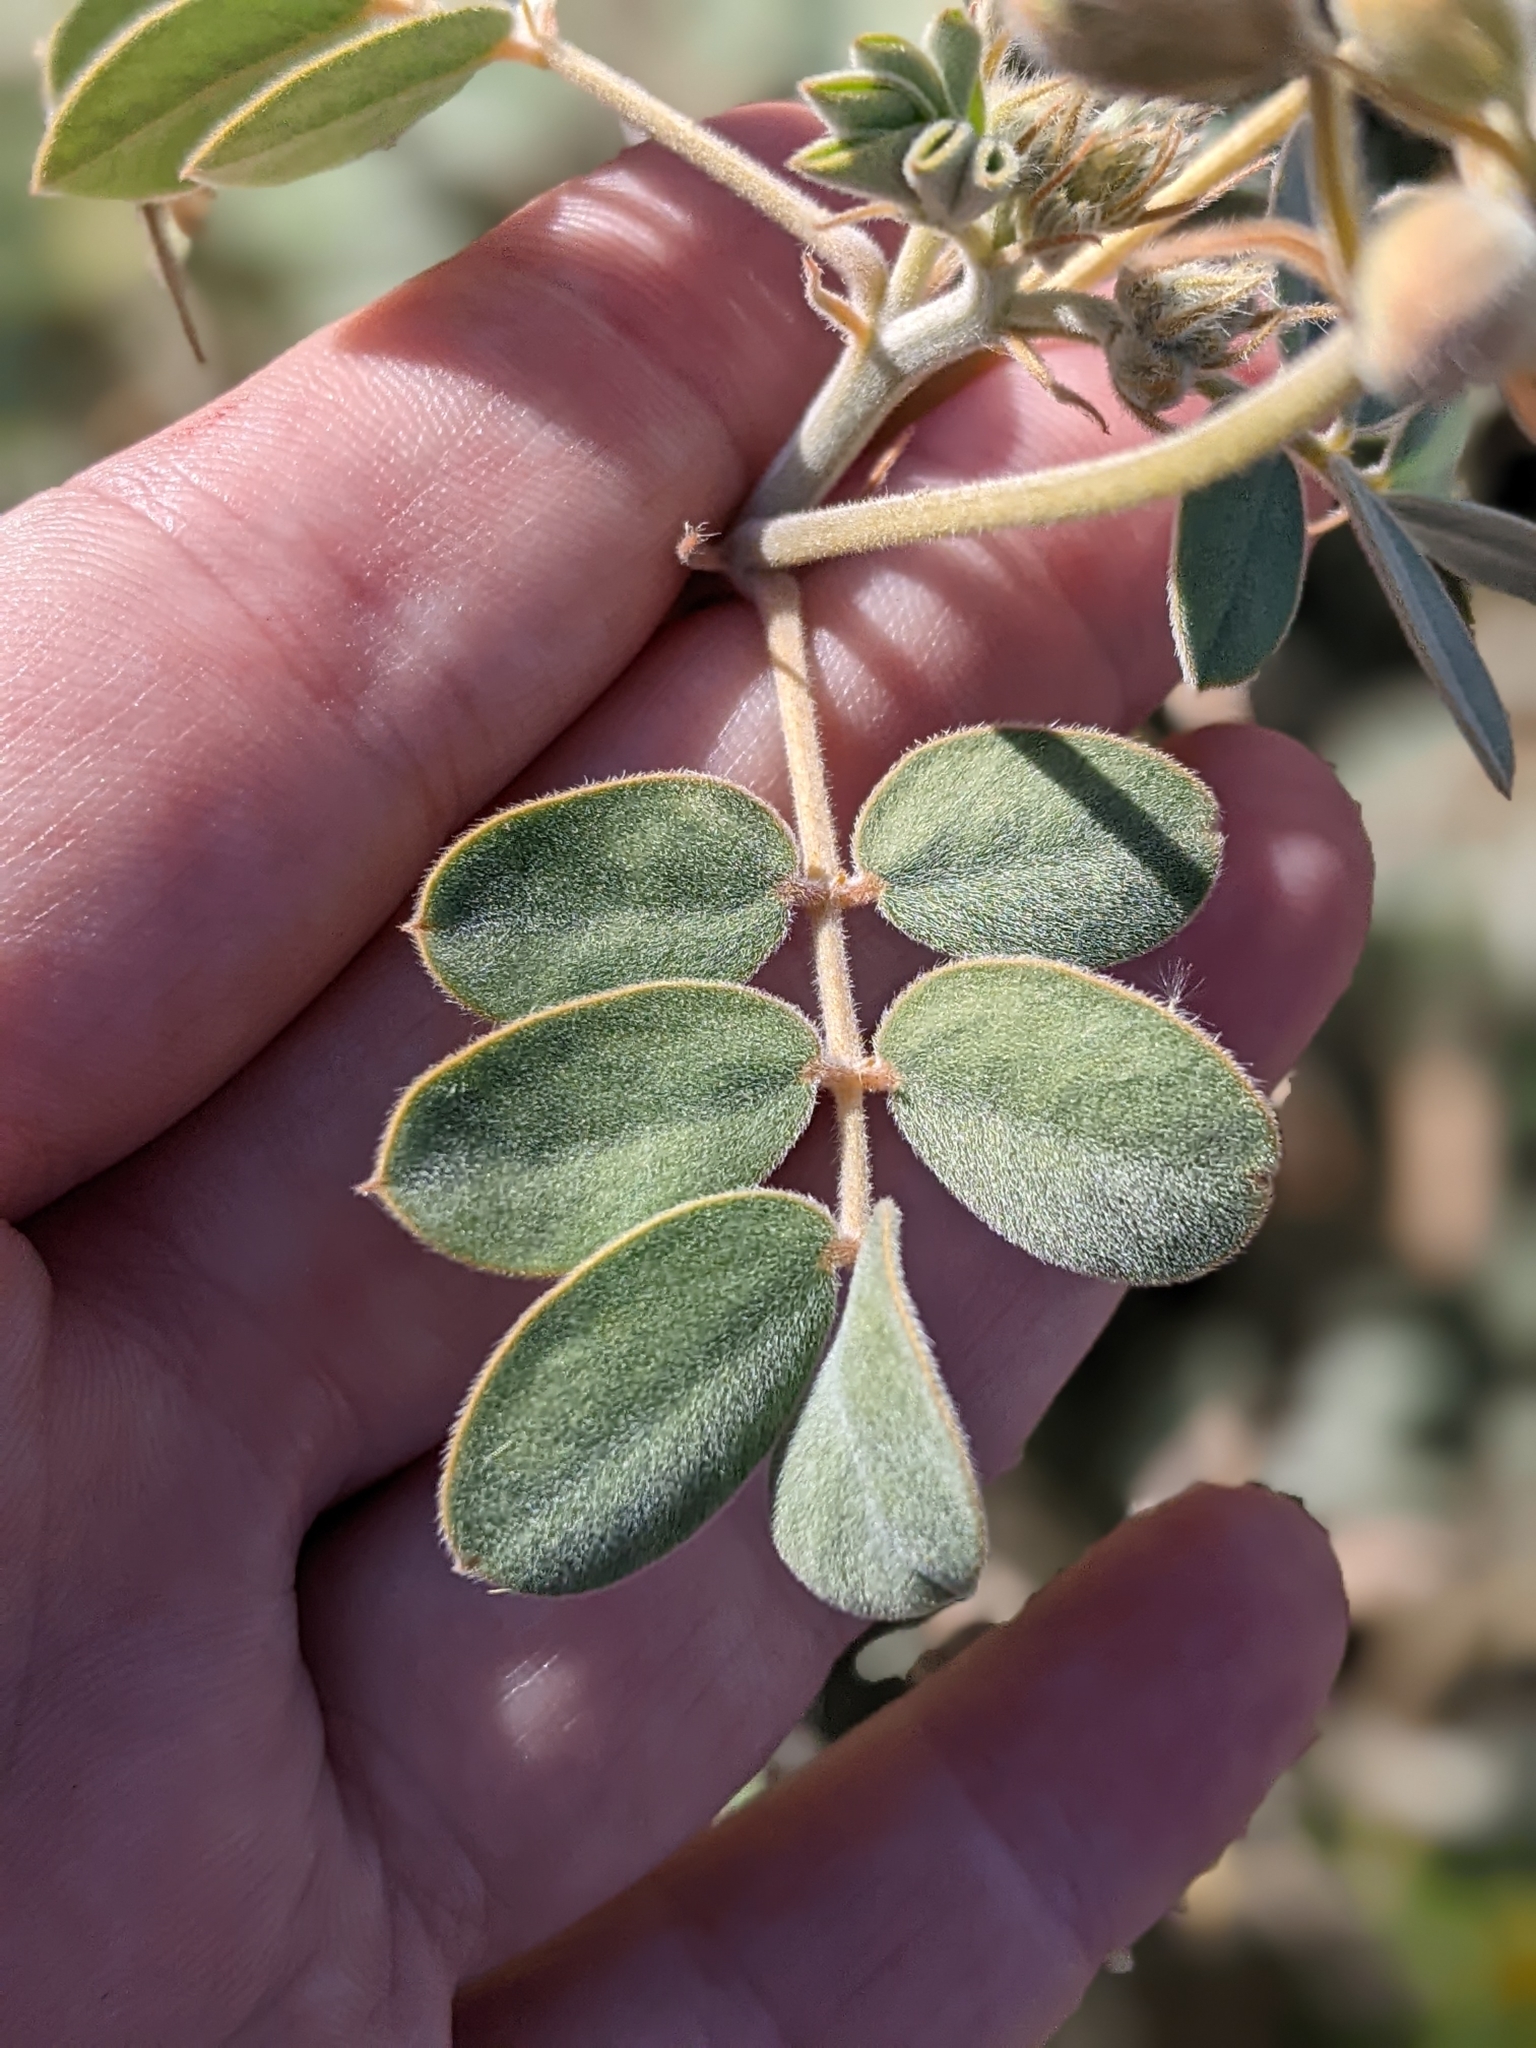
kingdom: Plantae
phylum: Tracheophyta
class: Magnoliopsida
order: Fabales
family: Fabaceae
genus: Senna
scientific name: Senna covesii
